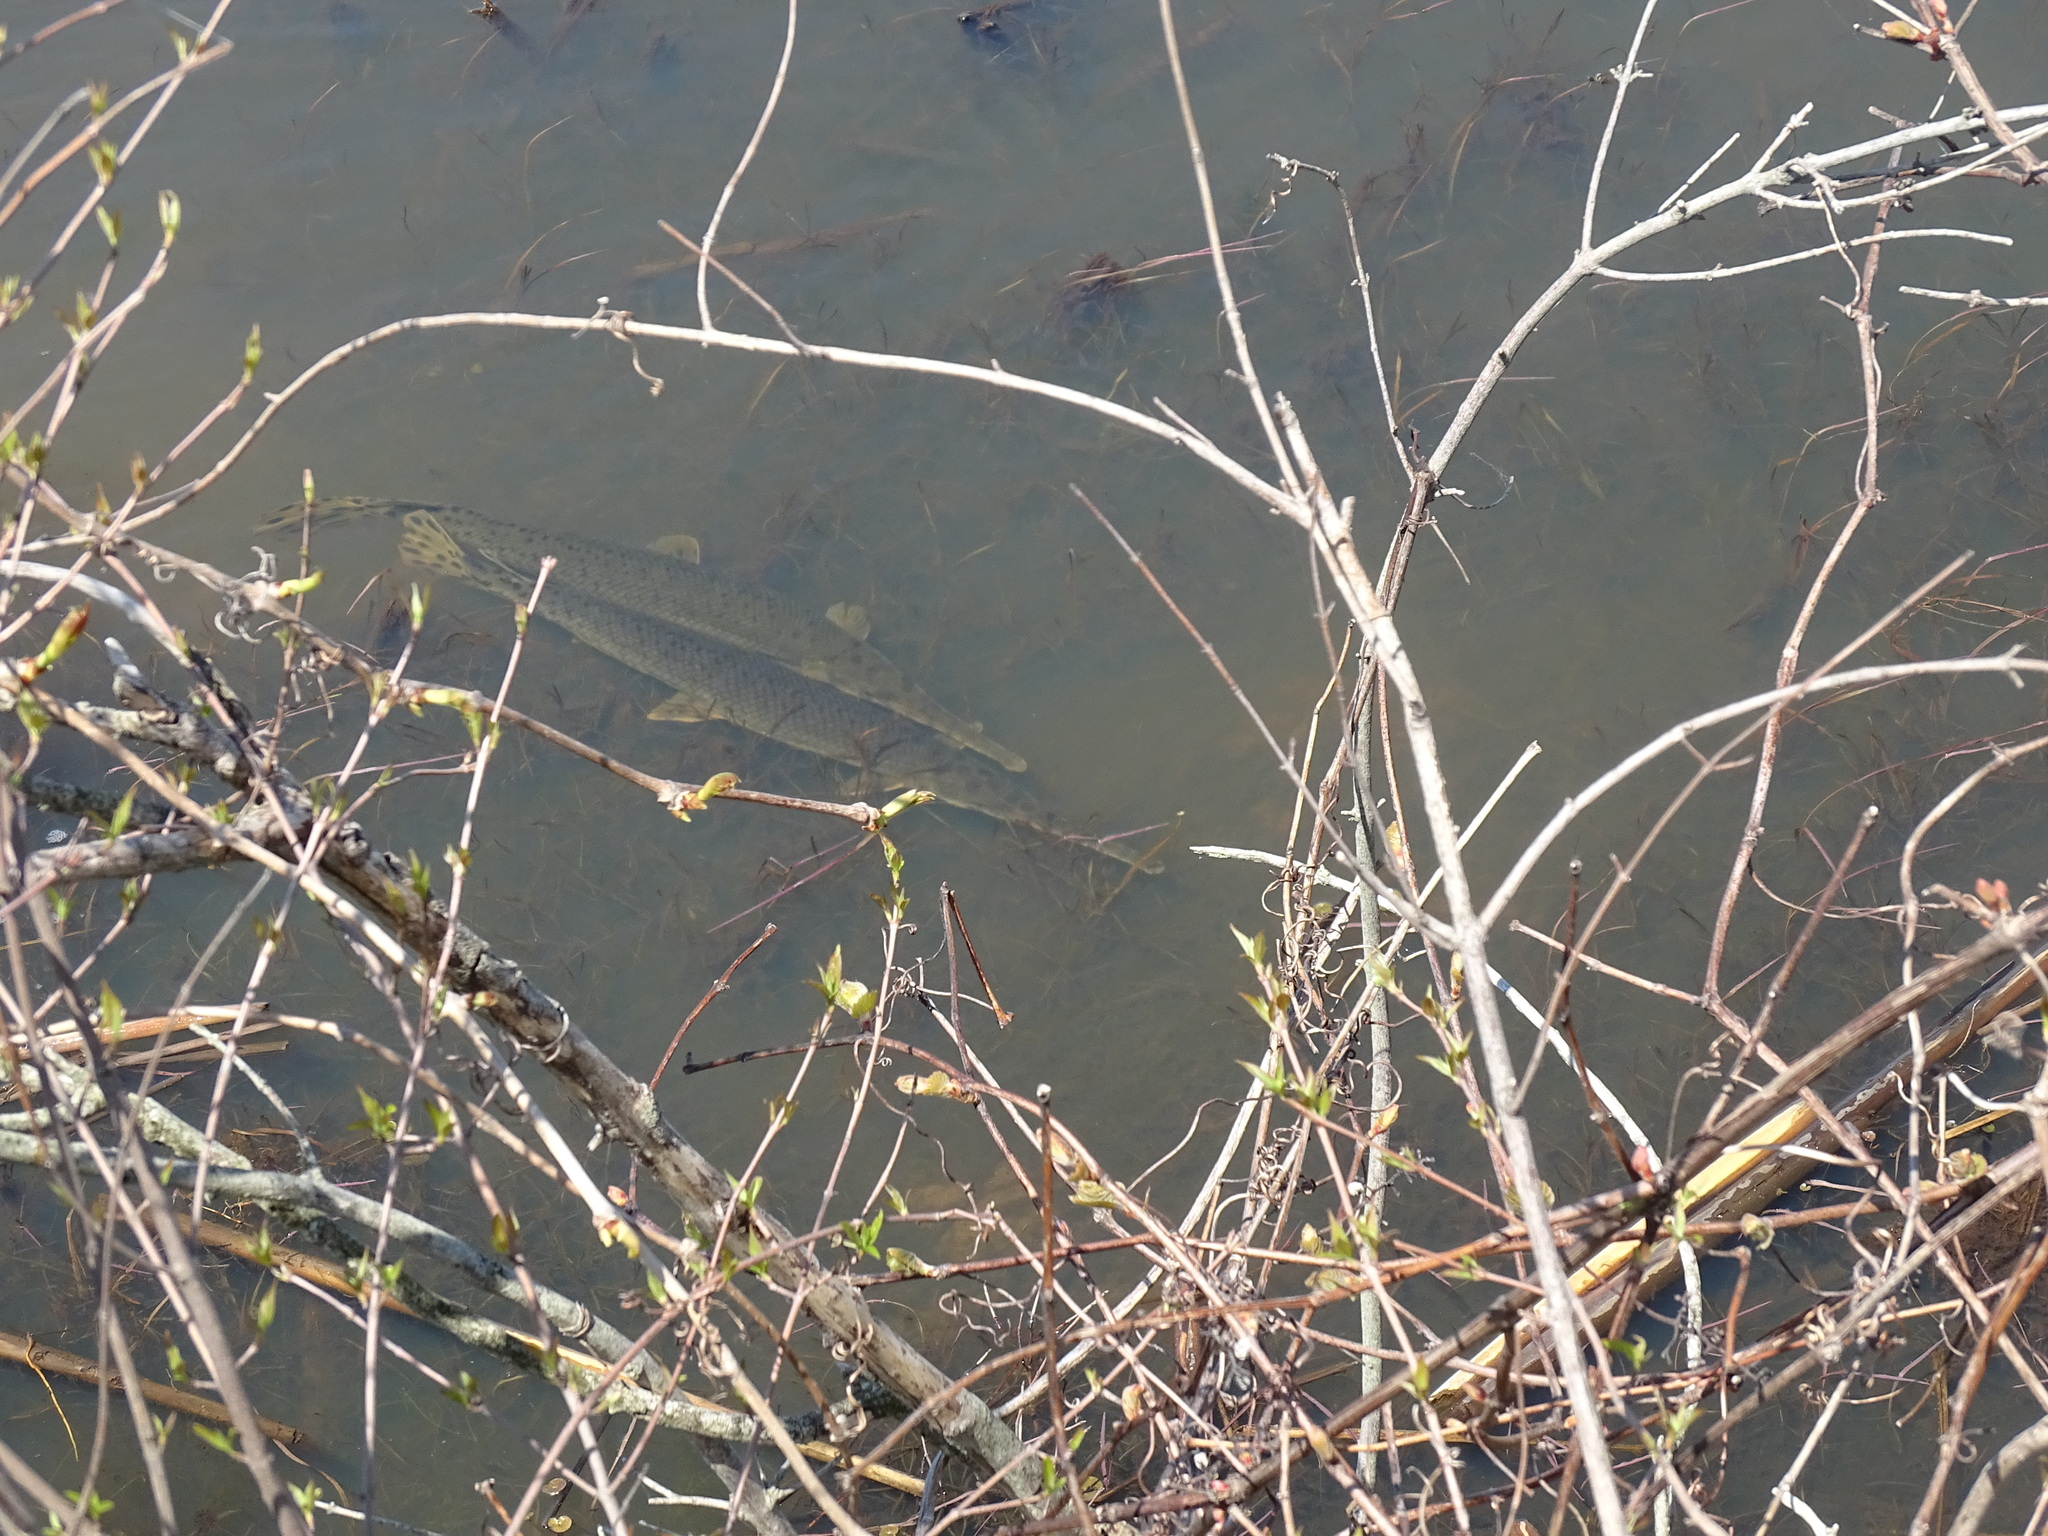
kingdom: Animalia
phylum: Chordata
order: Lepisosteiformes
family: Lepisosteidae
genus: Lepisosteus
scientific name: Lepisosteus osseus
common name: Longnose gar
